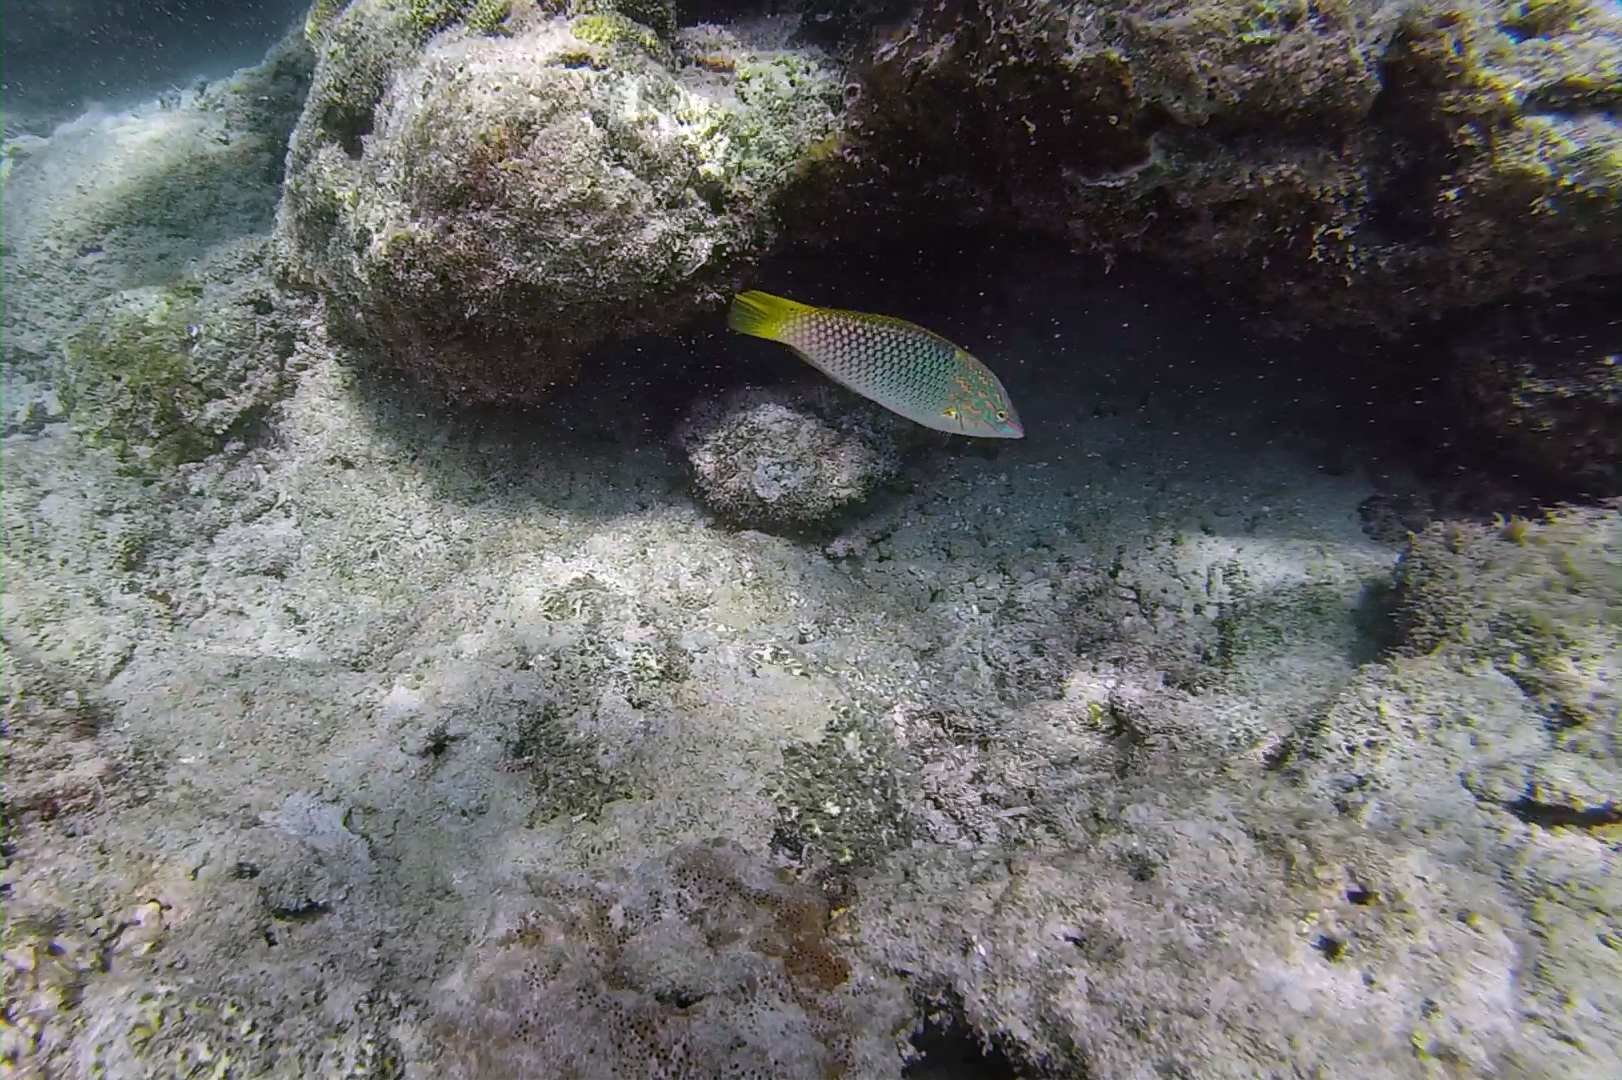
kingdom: Animalia
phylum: Chordata
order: Perciformes
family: Labridae
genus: Halichoeres
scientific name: Halichoeres hortulanus
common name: Checkerboard wrasse
